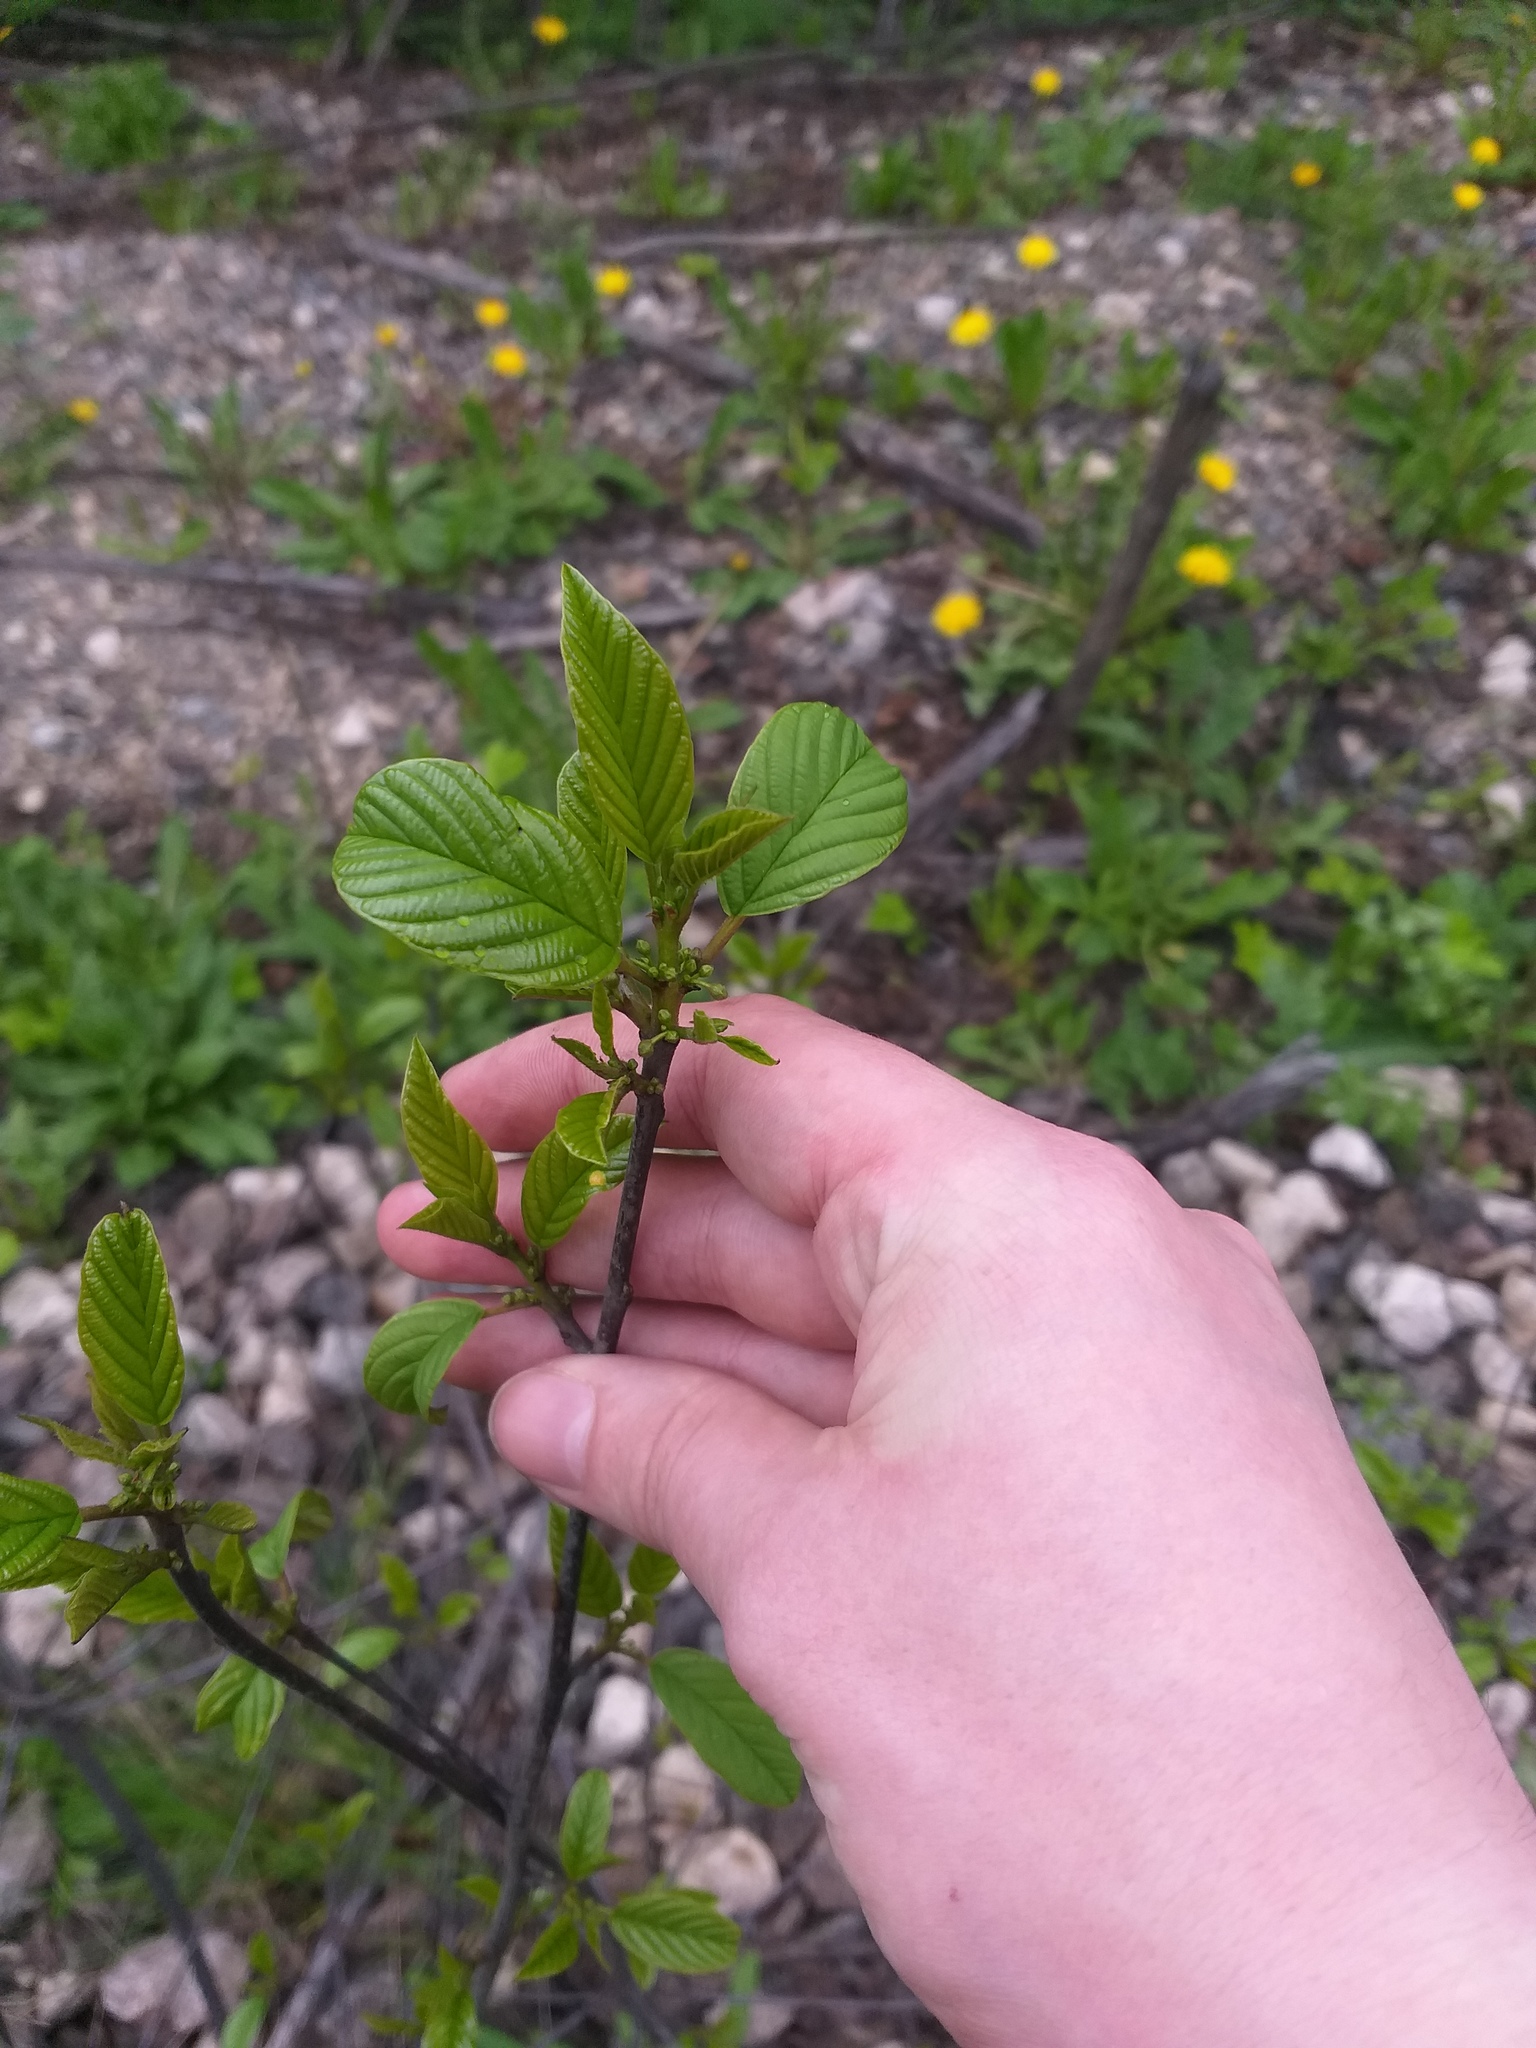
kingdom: Plantae
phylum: Tracheophyta
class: Magnoliopsida
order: Rosales
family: Rhamnaceae
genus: Frangula
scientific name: Frangula alnus
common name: Alder buckthorn
